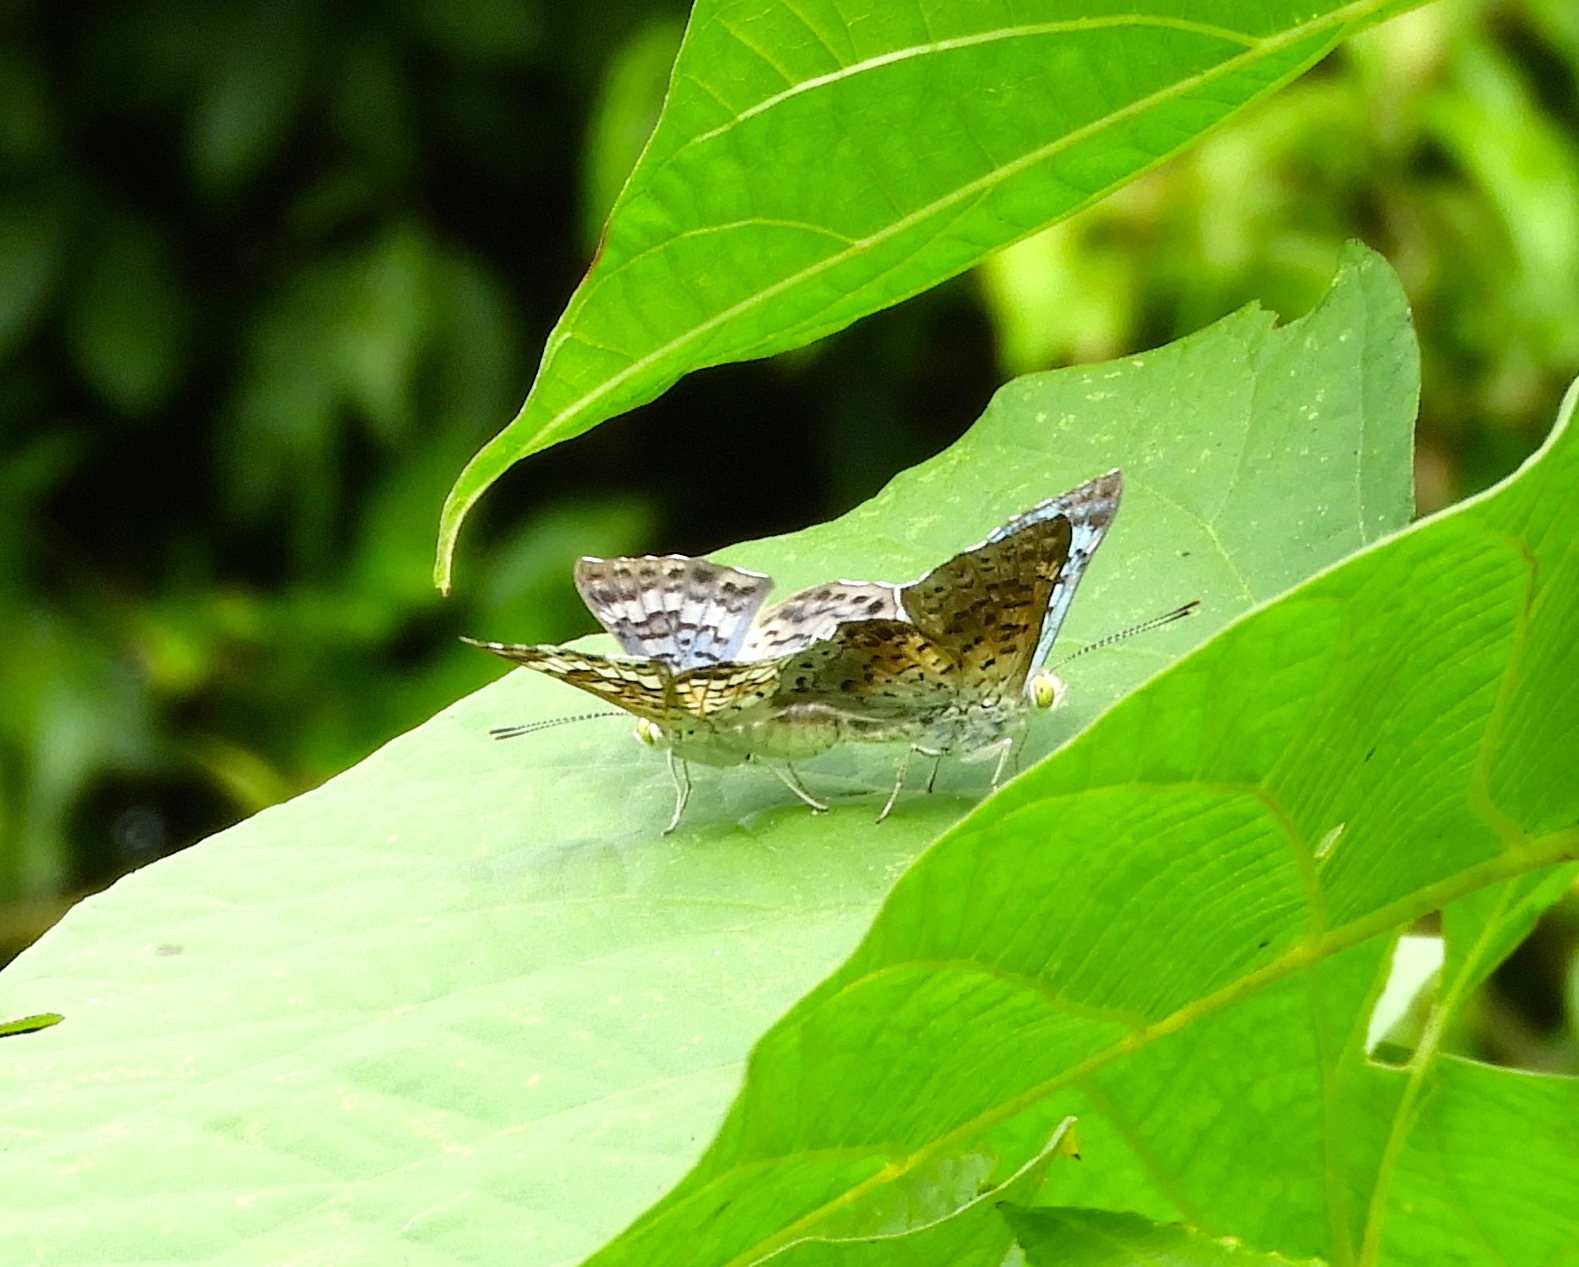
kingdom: Animalia
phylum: Arthropoda
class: Insecta
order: Lepidoptera
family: Riodinidae
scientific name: Riodinidae
